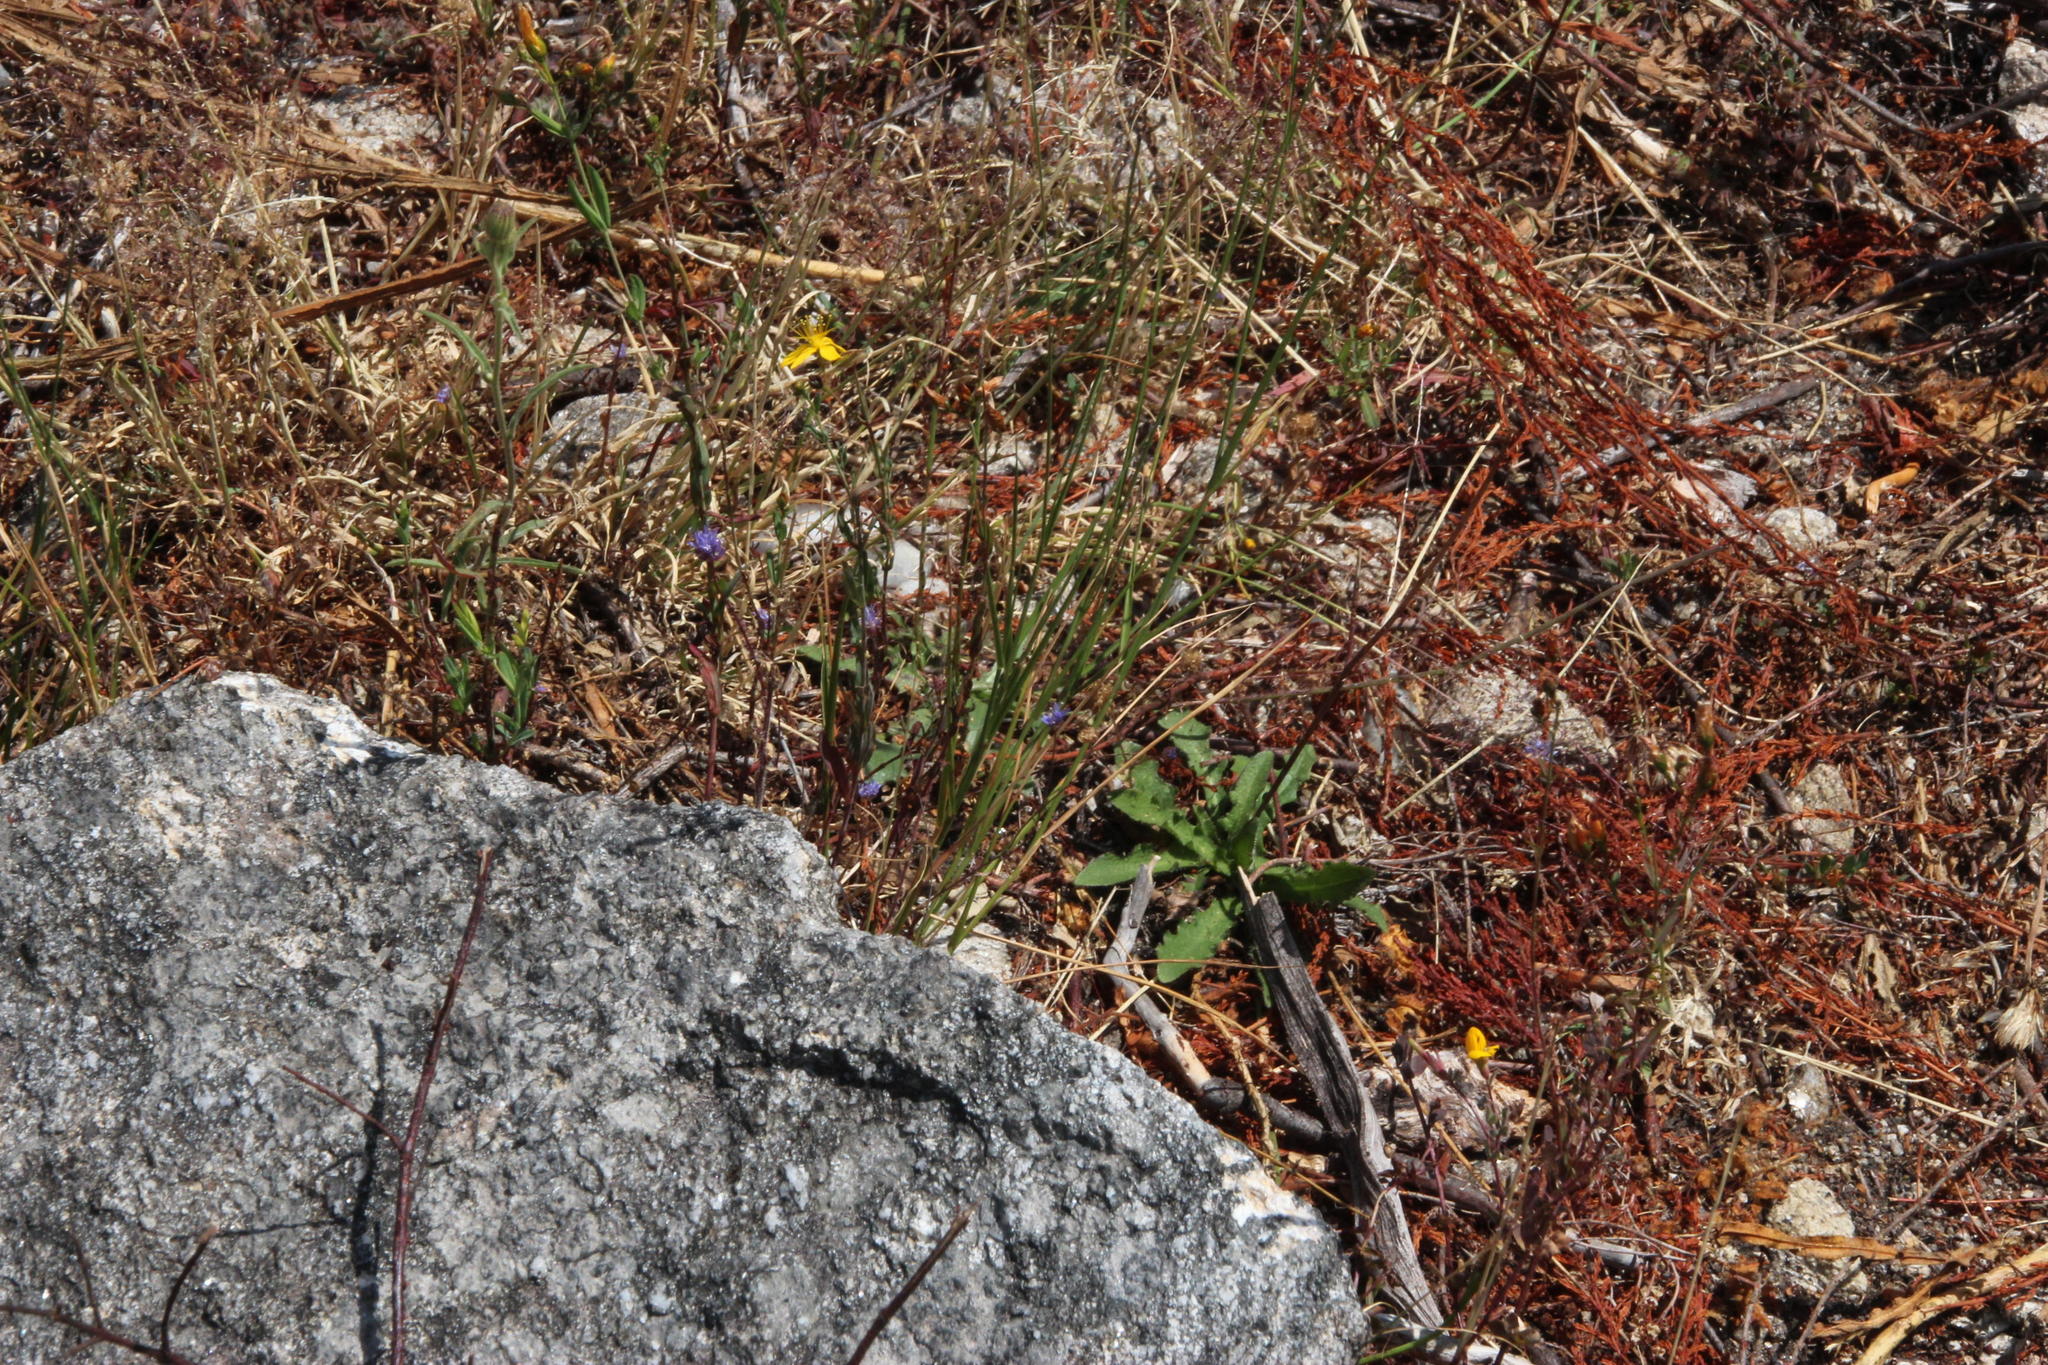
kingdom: Plantae
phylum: Tracheophyta
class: Magnoliopsida
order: Asterales
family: Campanulaceae
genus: Jasione
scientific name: Jasione montana
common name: Sheep's-bit
